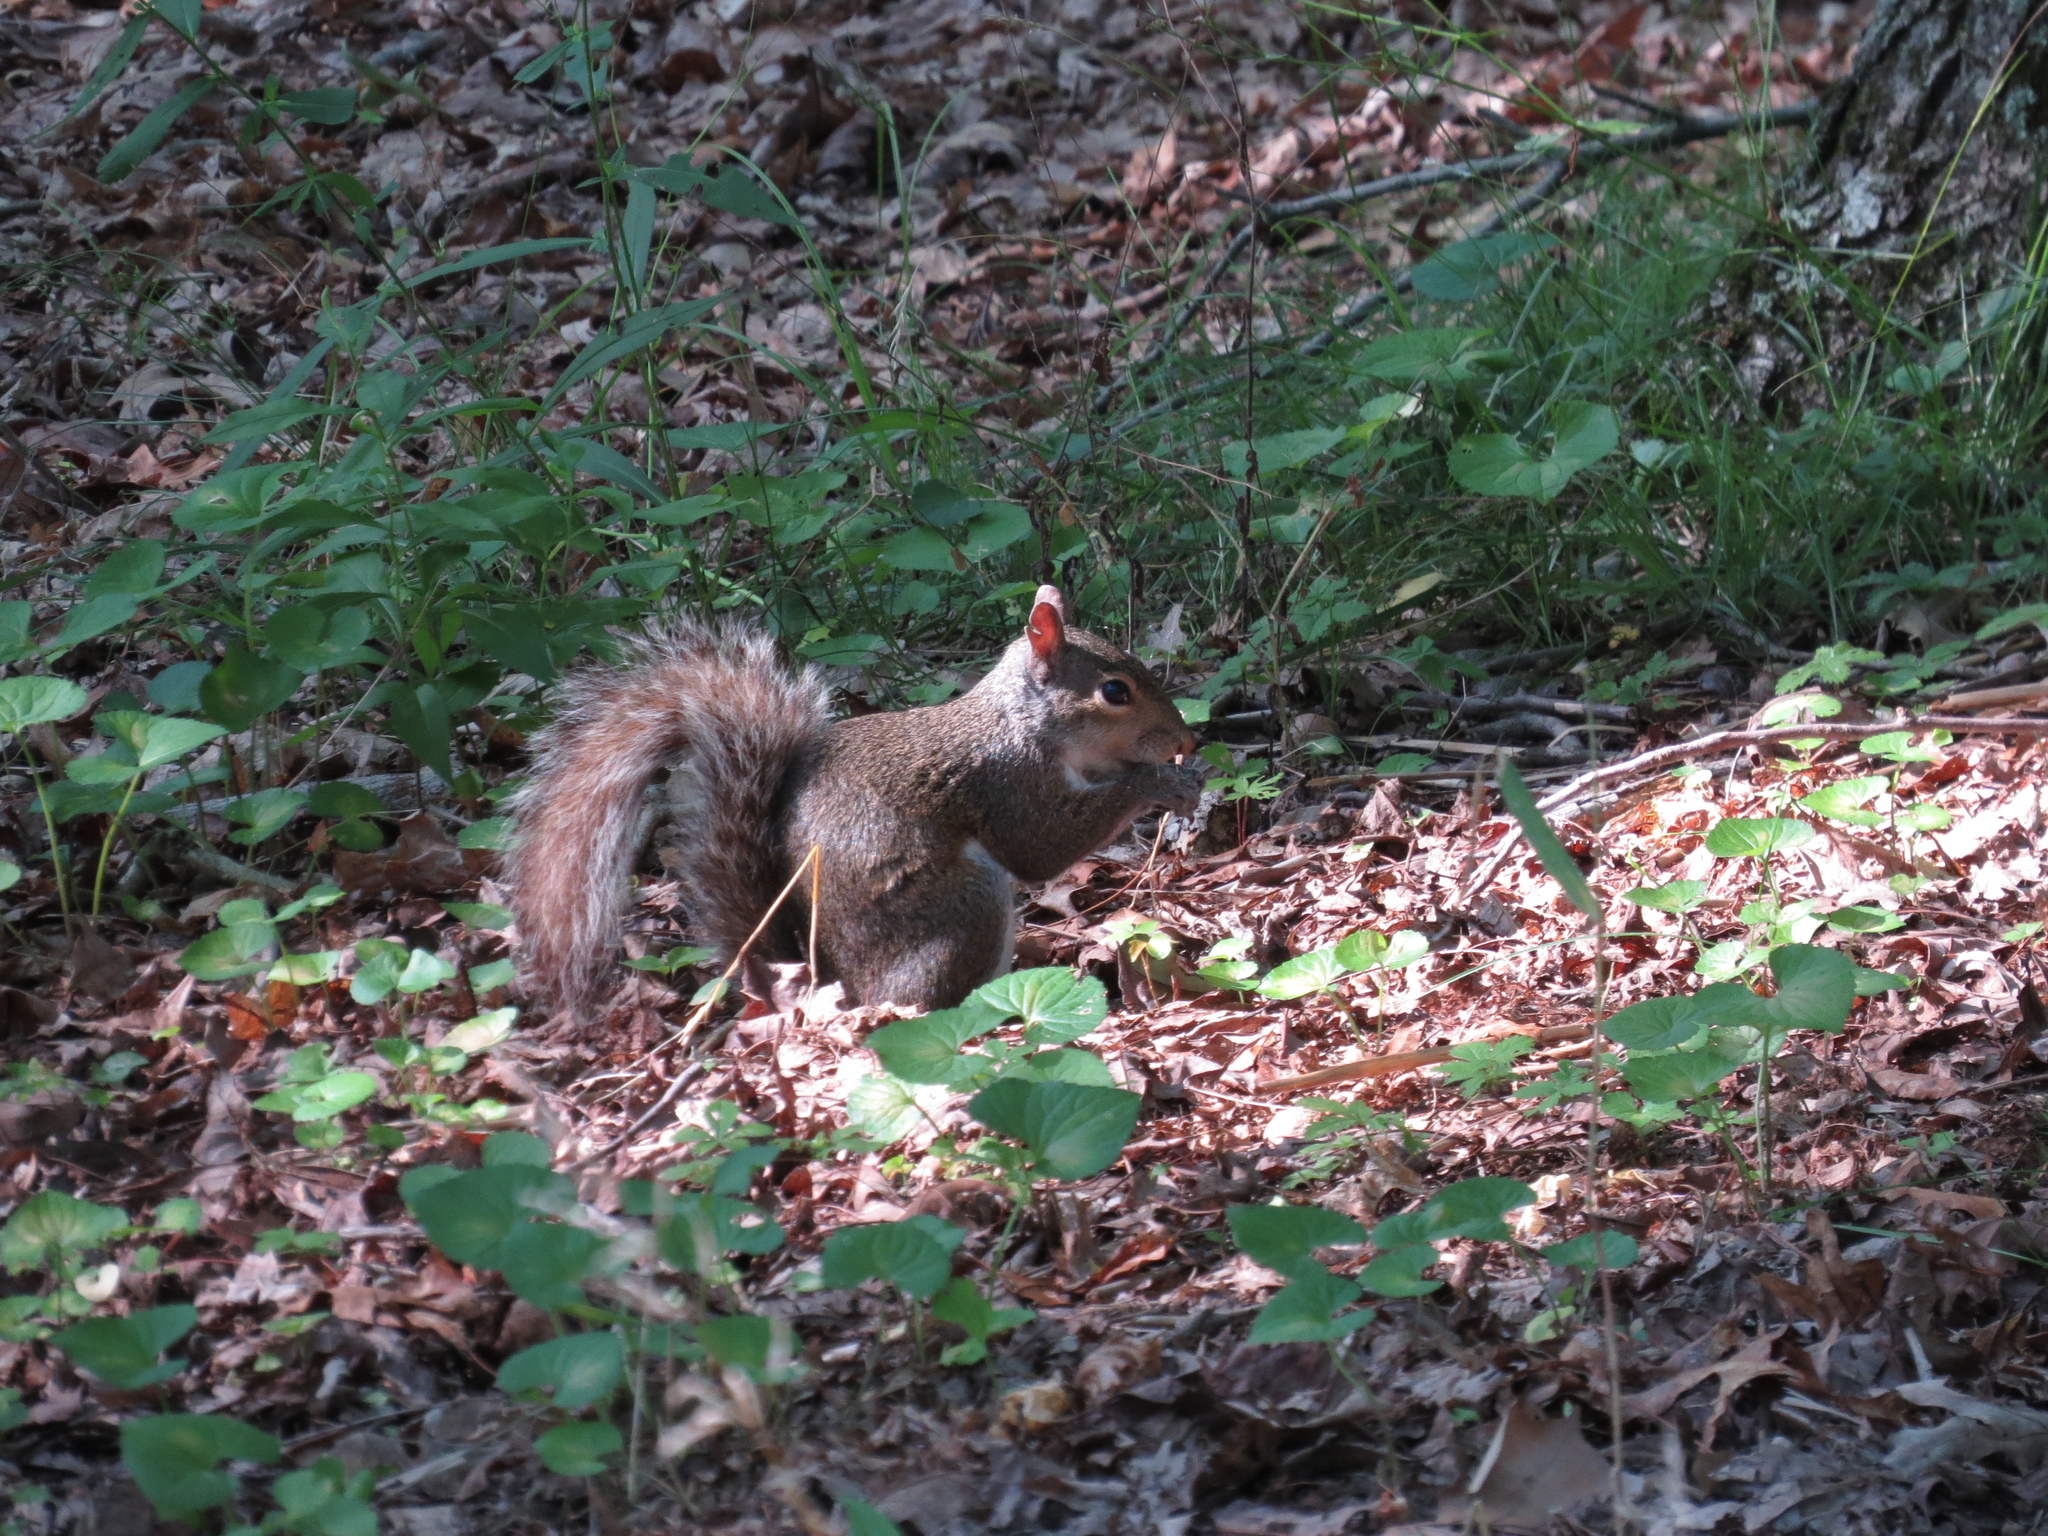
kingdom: Animalia
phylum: Chordata
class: Mammalia
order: Rodentia
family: Sciuridae
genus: Sciurus
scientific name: Sciurus carolinensis
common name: Eastern gray squirrel
